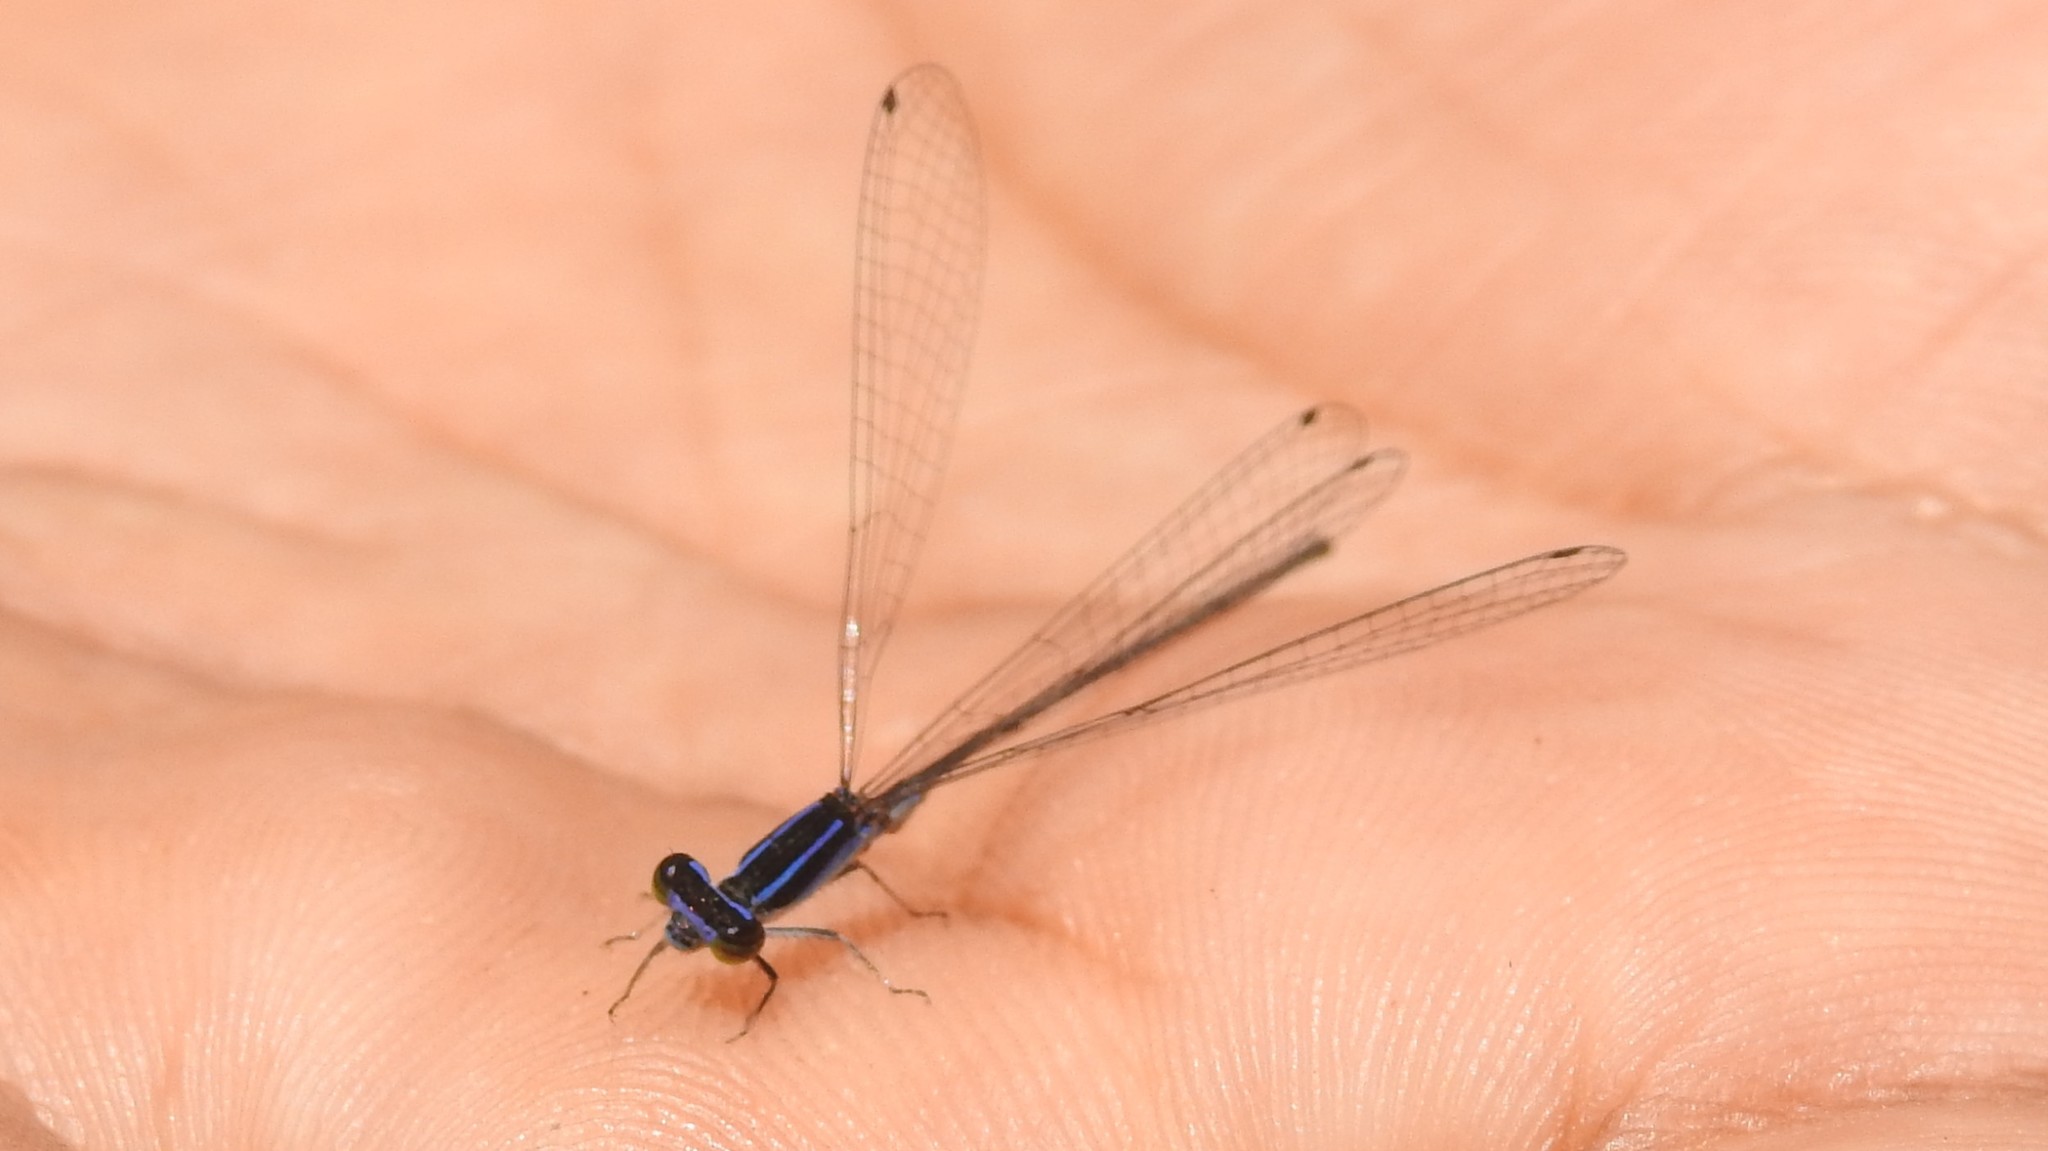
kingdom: Animalia
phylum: Arthropoda
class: Insecta
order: Odonata
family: Coenagrionidae
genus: Aciagrion
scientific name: Aciagrion approximans
